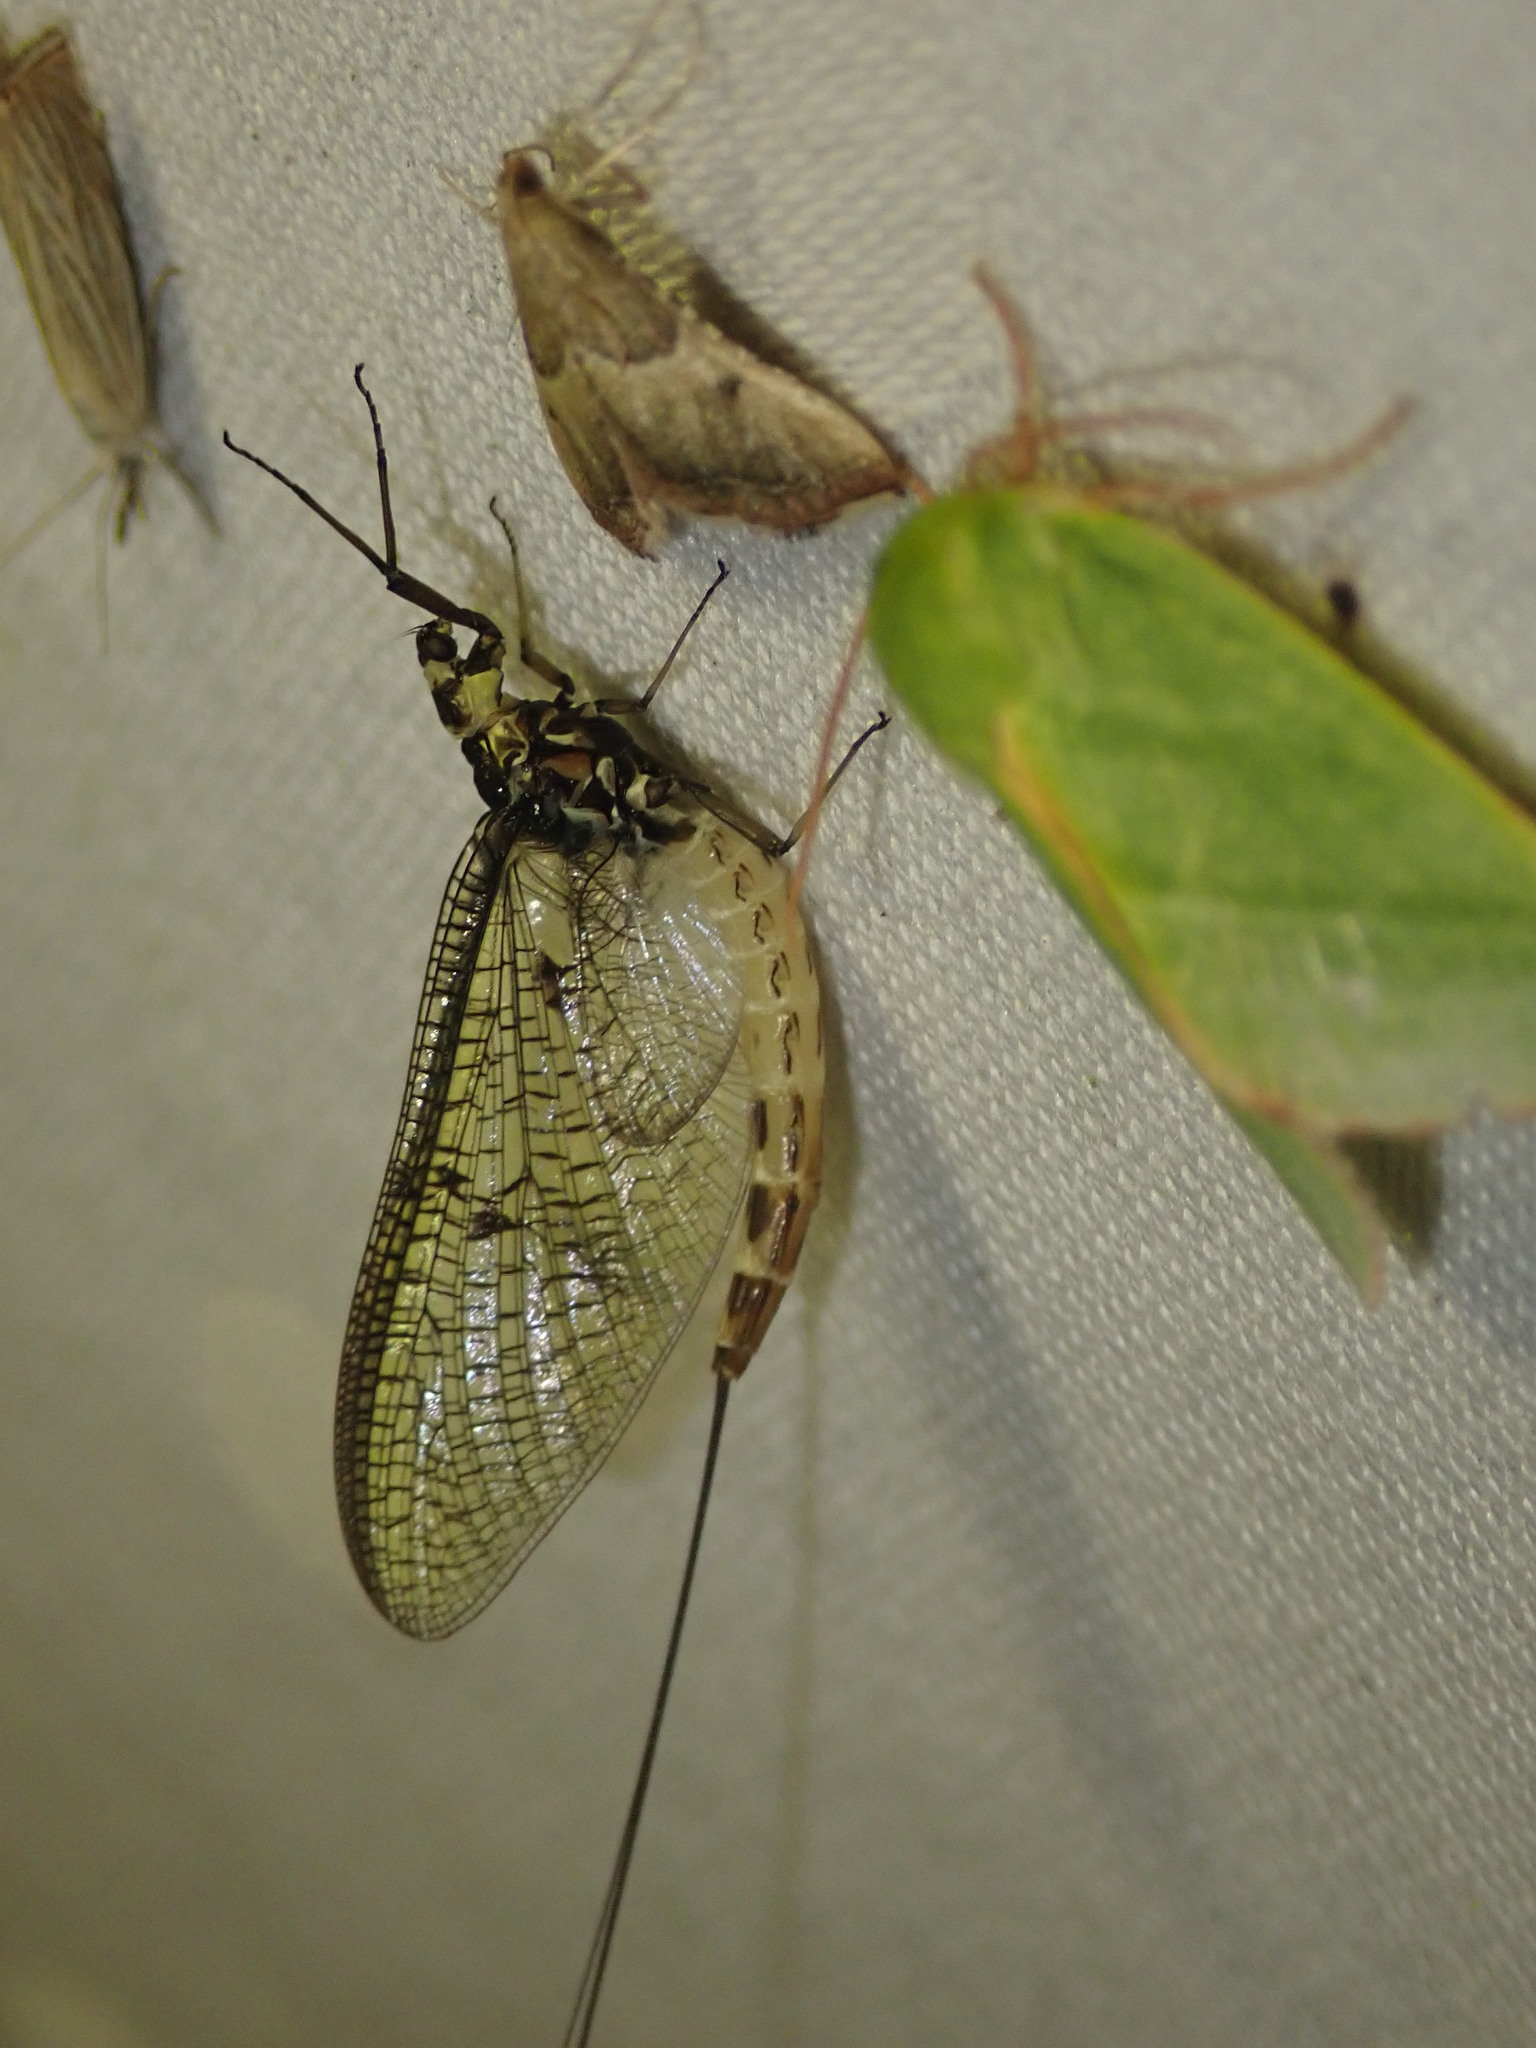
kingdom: Animalia
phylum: Arthropoda
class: Insecta
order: Ephemeroptera
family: Ephemeridae
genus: Ephemera
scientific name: Ephemera danica
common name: Green dun
